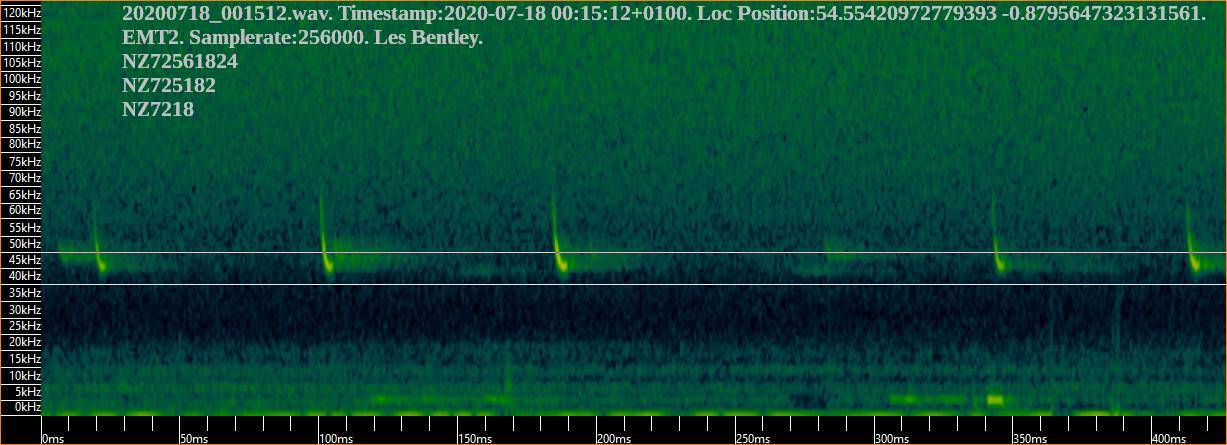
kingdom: Animalia
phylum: Chordata
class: Mammalia
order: Chiroptera
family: Vespertilionidae
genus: Pipistrellus
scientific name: Pipistrellus pipistrellus
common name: Common pipistrelle
